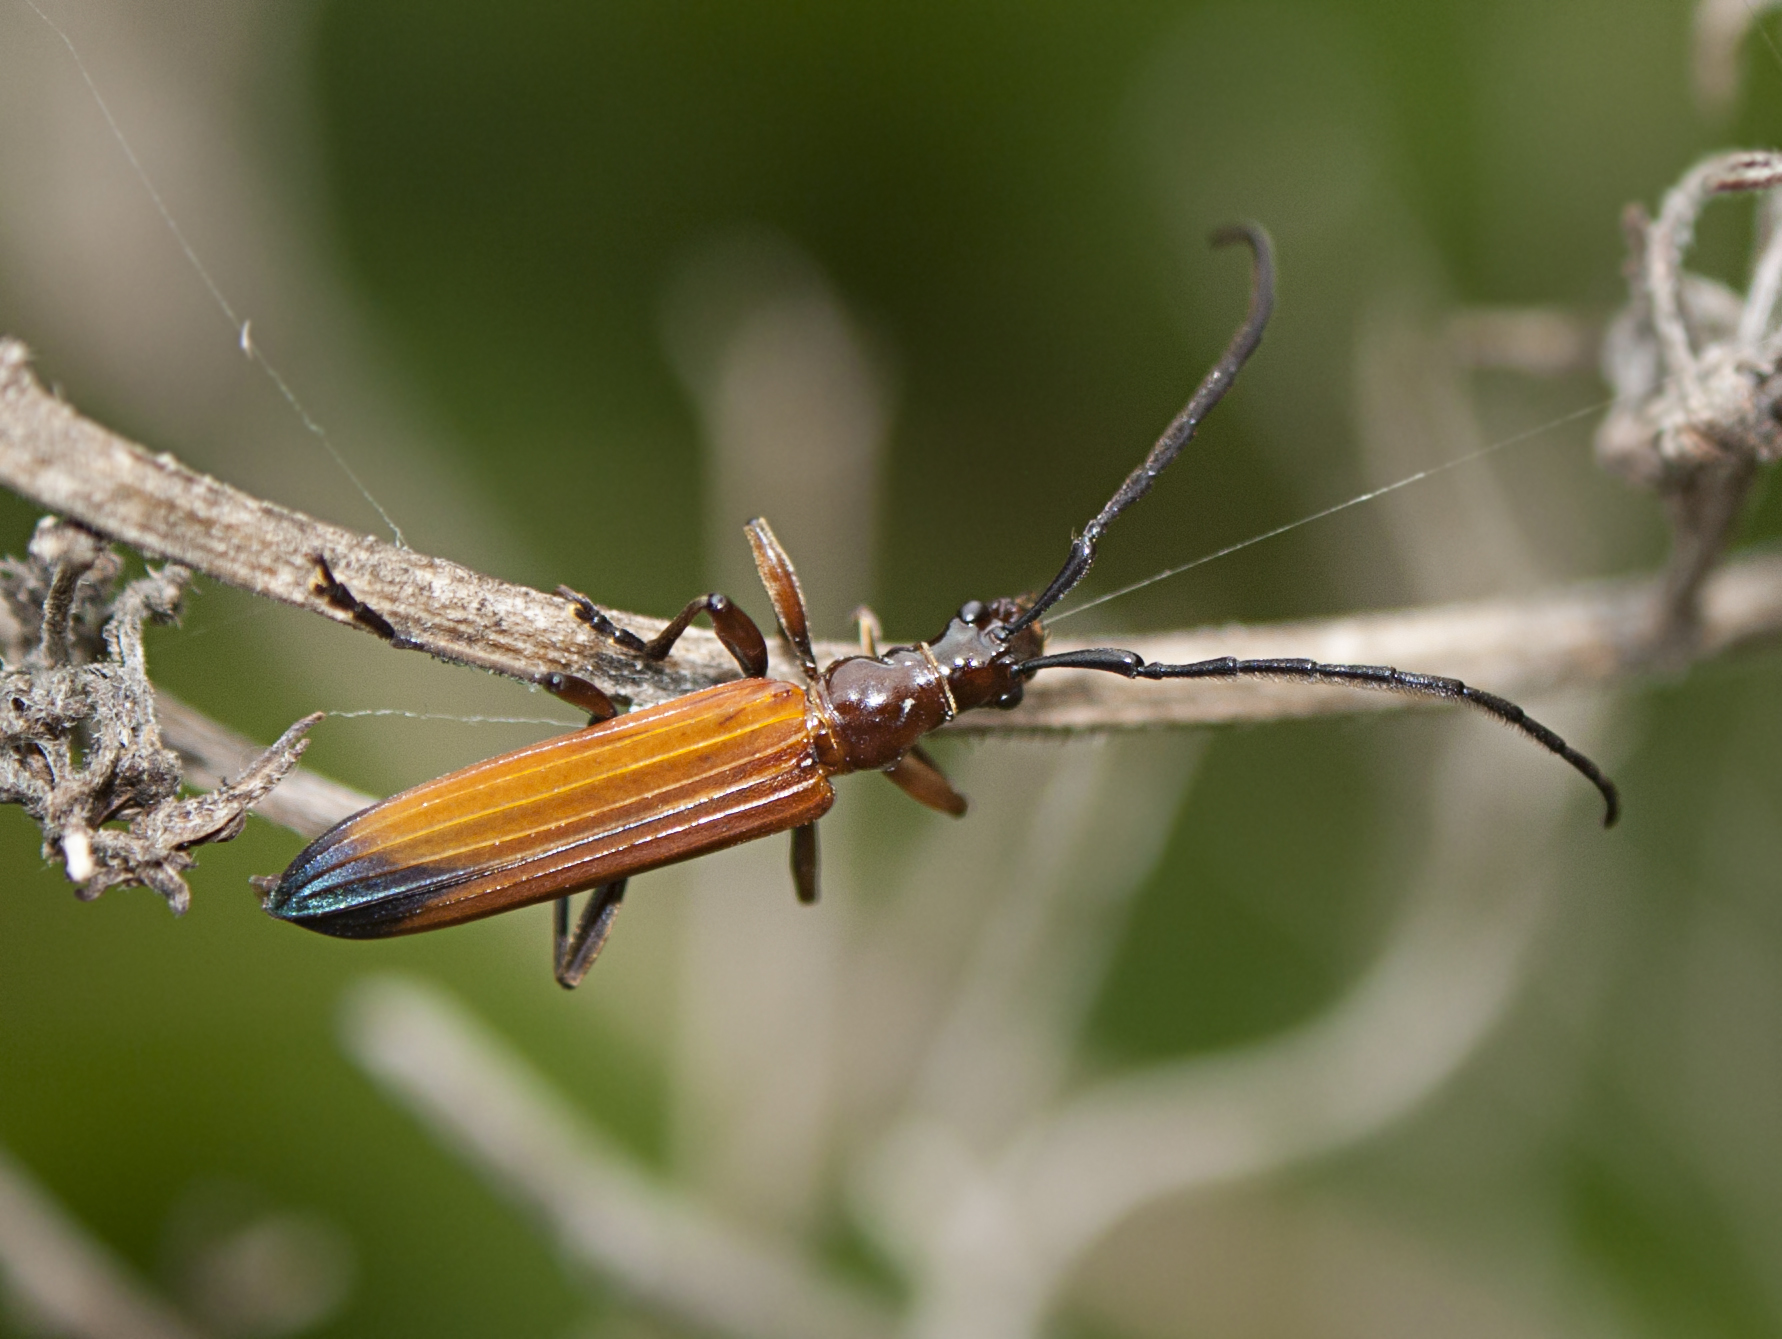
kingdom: Animalia
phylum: Arthropoda
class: Insecta
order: Coleoptera
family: Cerambycidae
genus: Stenoderus
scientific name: Stenoderus suturalis
